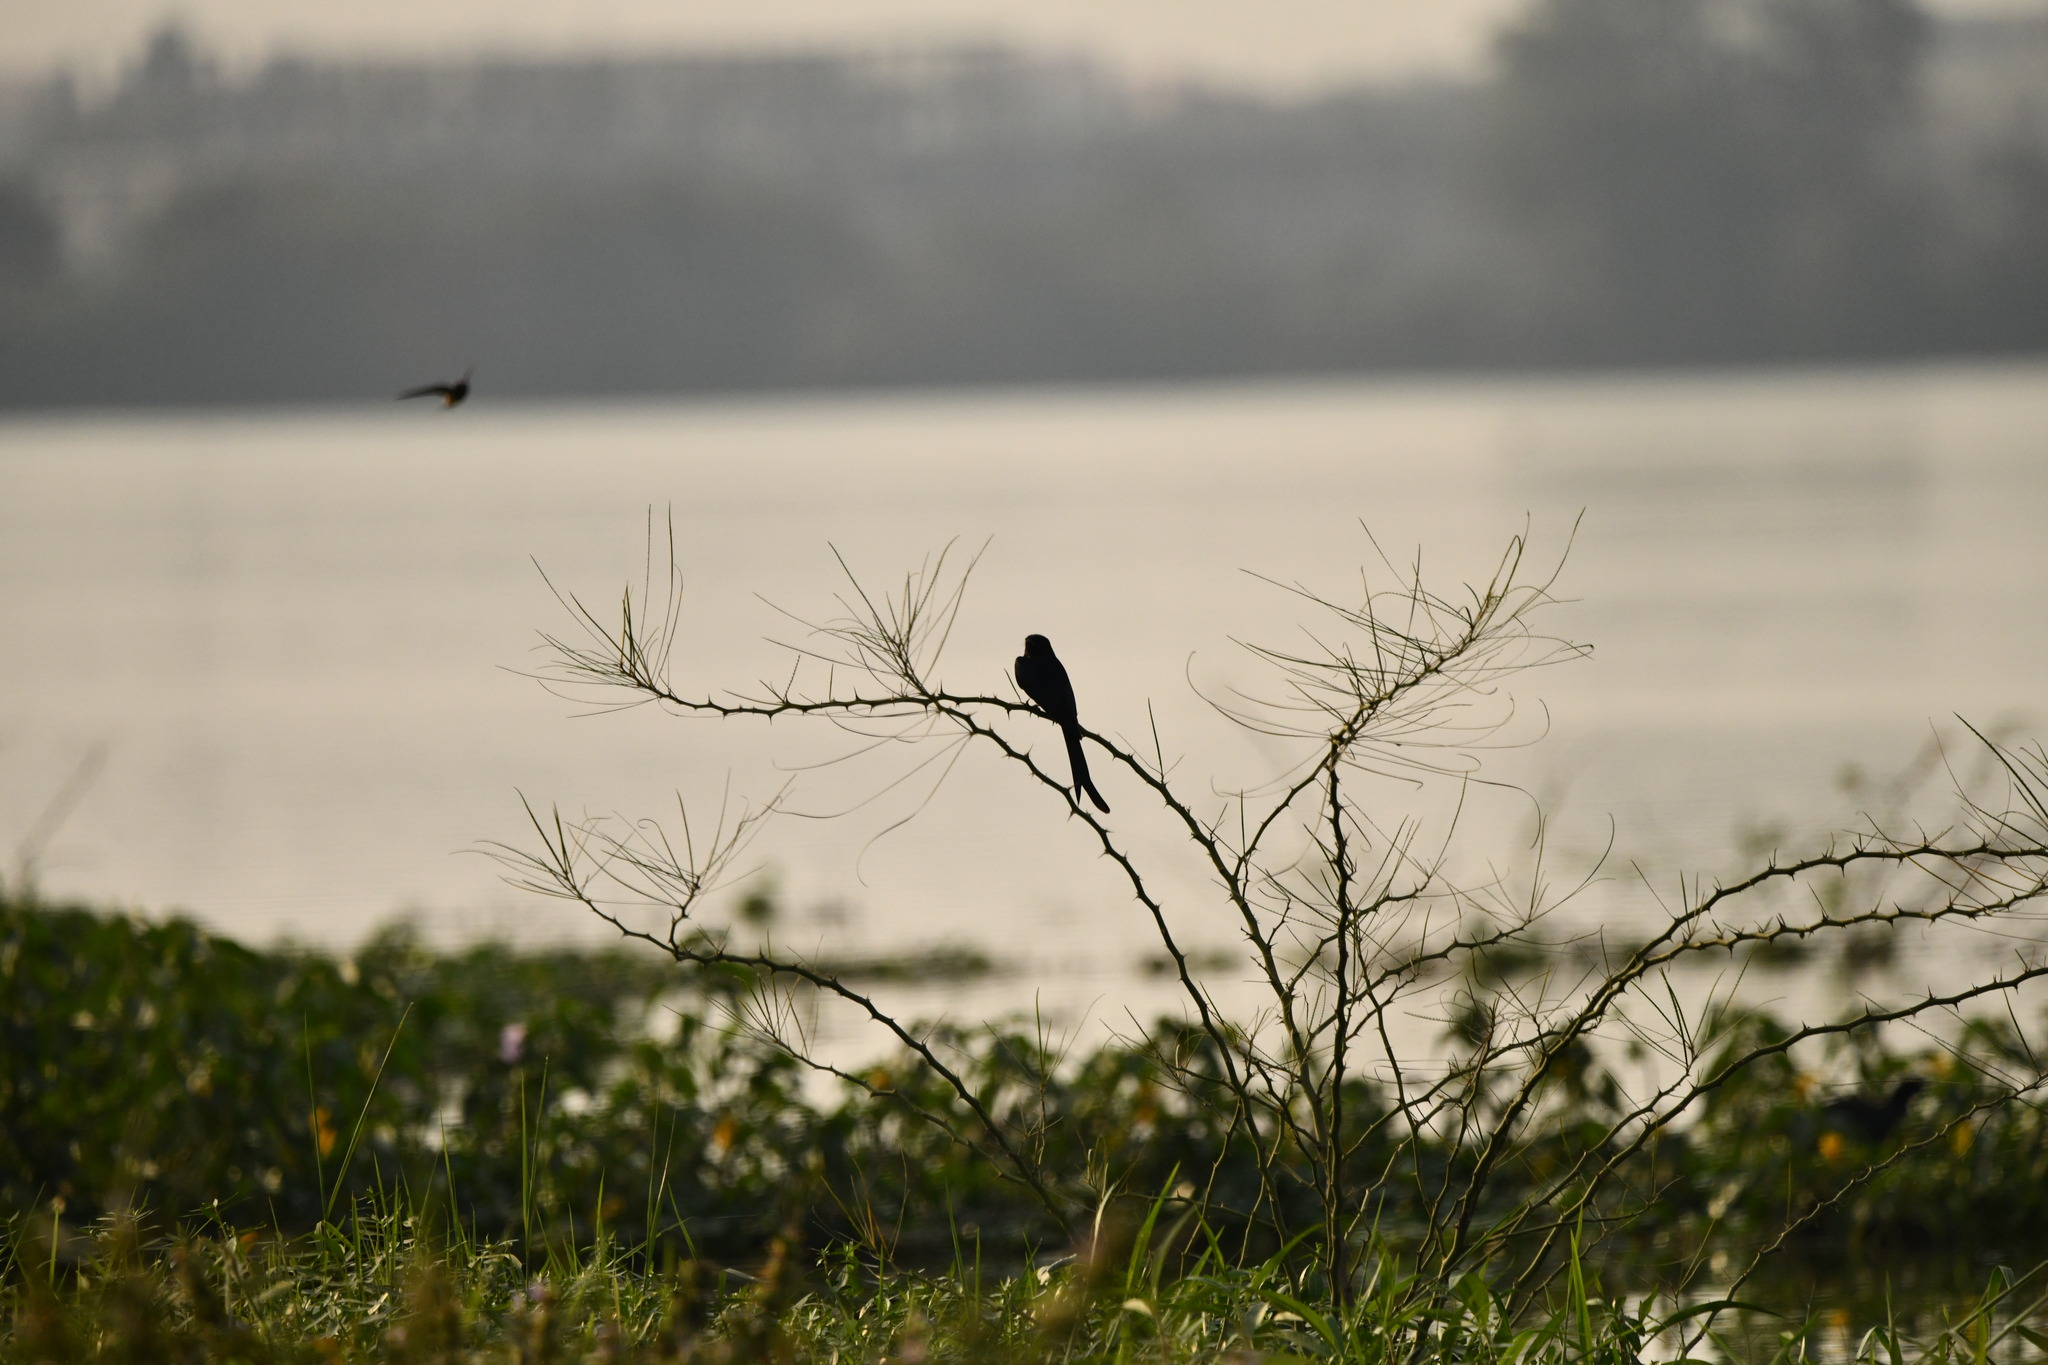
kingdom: Animalia
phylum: Chordata
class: Aves
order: Passeriformes
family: Dicruridae
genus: Dicrurus
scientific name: Dicrurus macrocercus
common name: Black drongo
